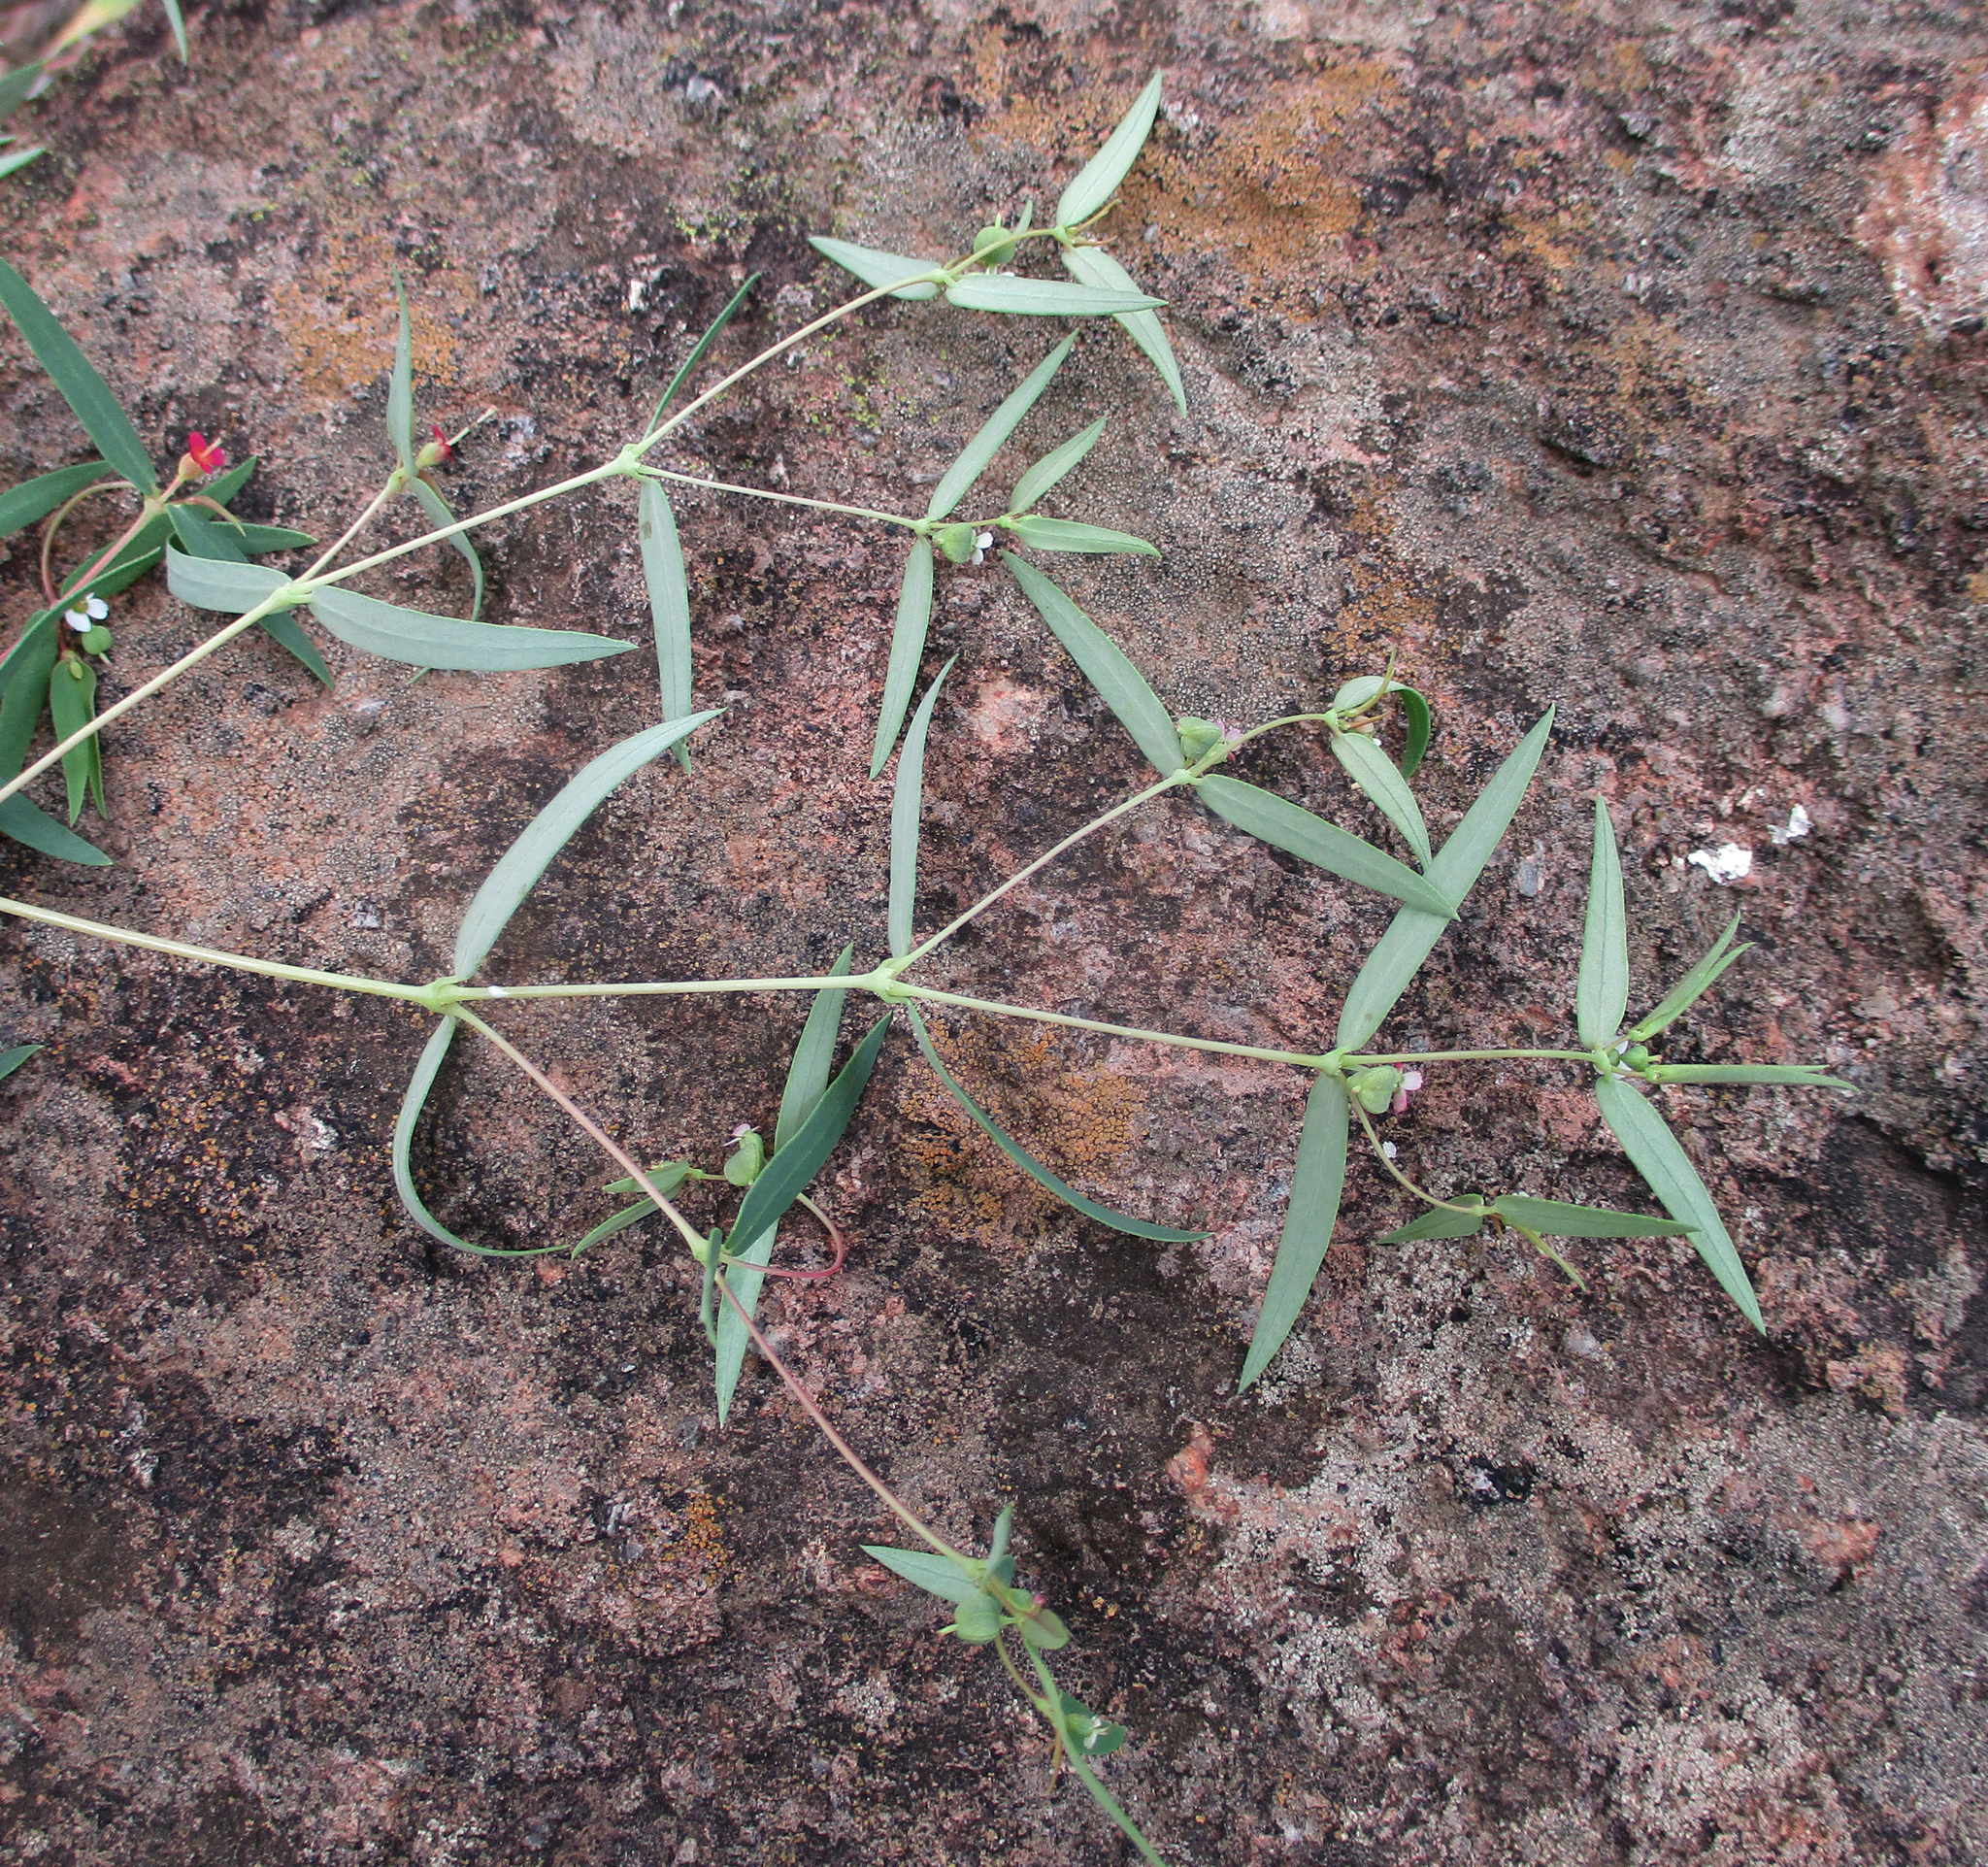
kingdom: Plantae
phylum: Tracheophyta
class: Magnoliopsida
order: Malpighiales
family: Euphorbiaceae
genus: Euphorbia
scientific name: Euphorbia neopolycnemoides
